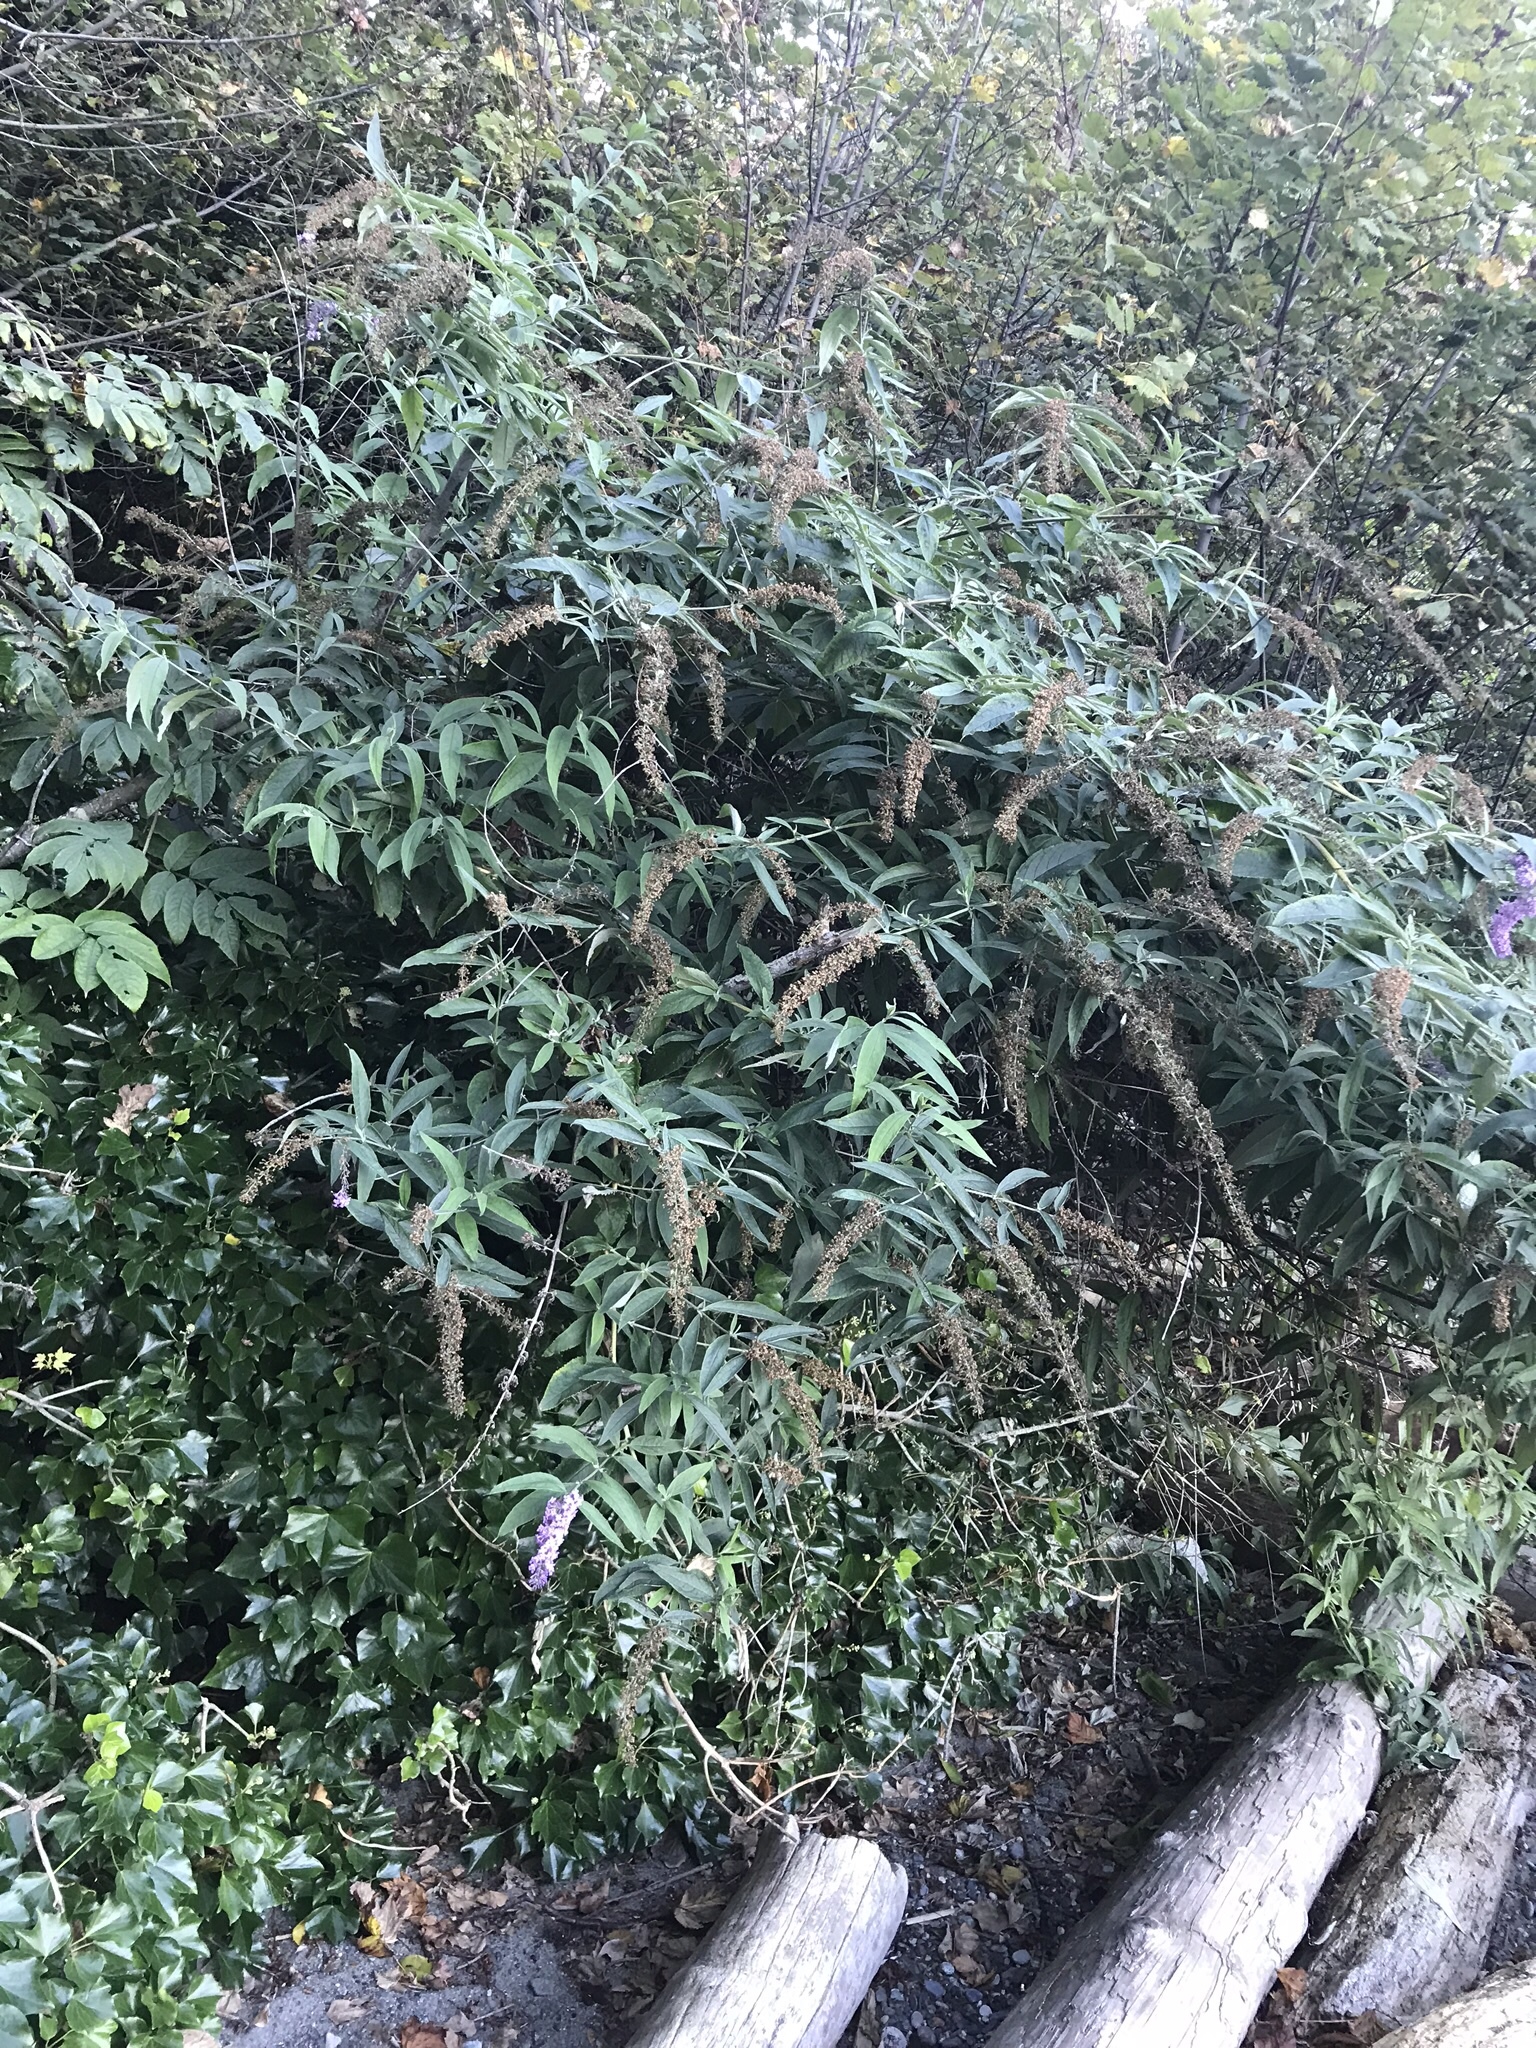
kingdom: Plantae
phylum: Tracheophyta
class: Magnoliopsida
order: Lamiales
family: Scrophulariaceae
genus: Buddleja
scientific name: Buddleja davidii
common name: Butterfly-bush
